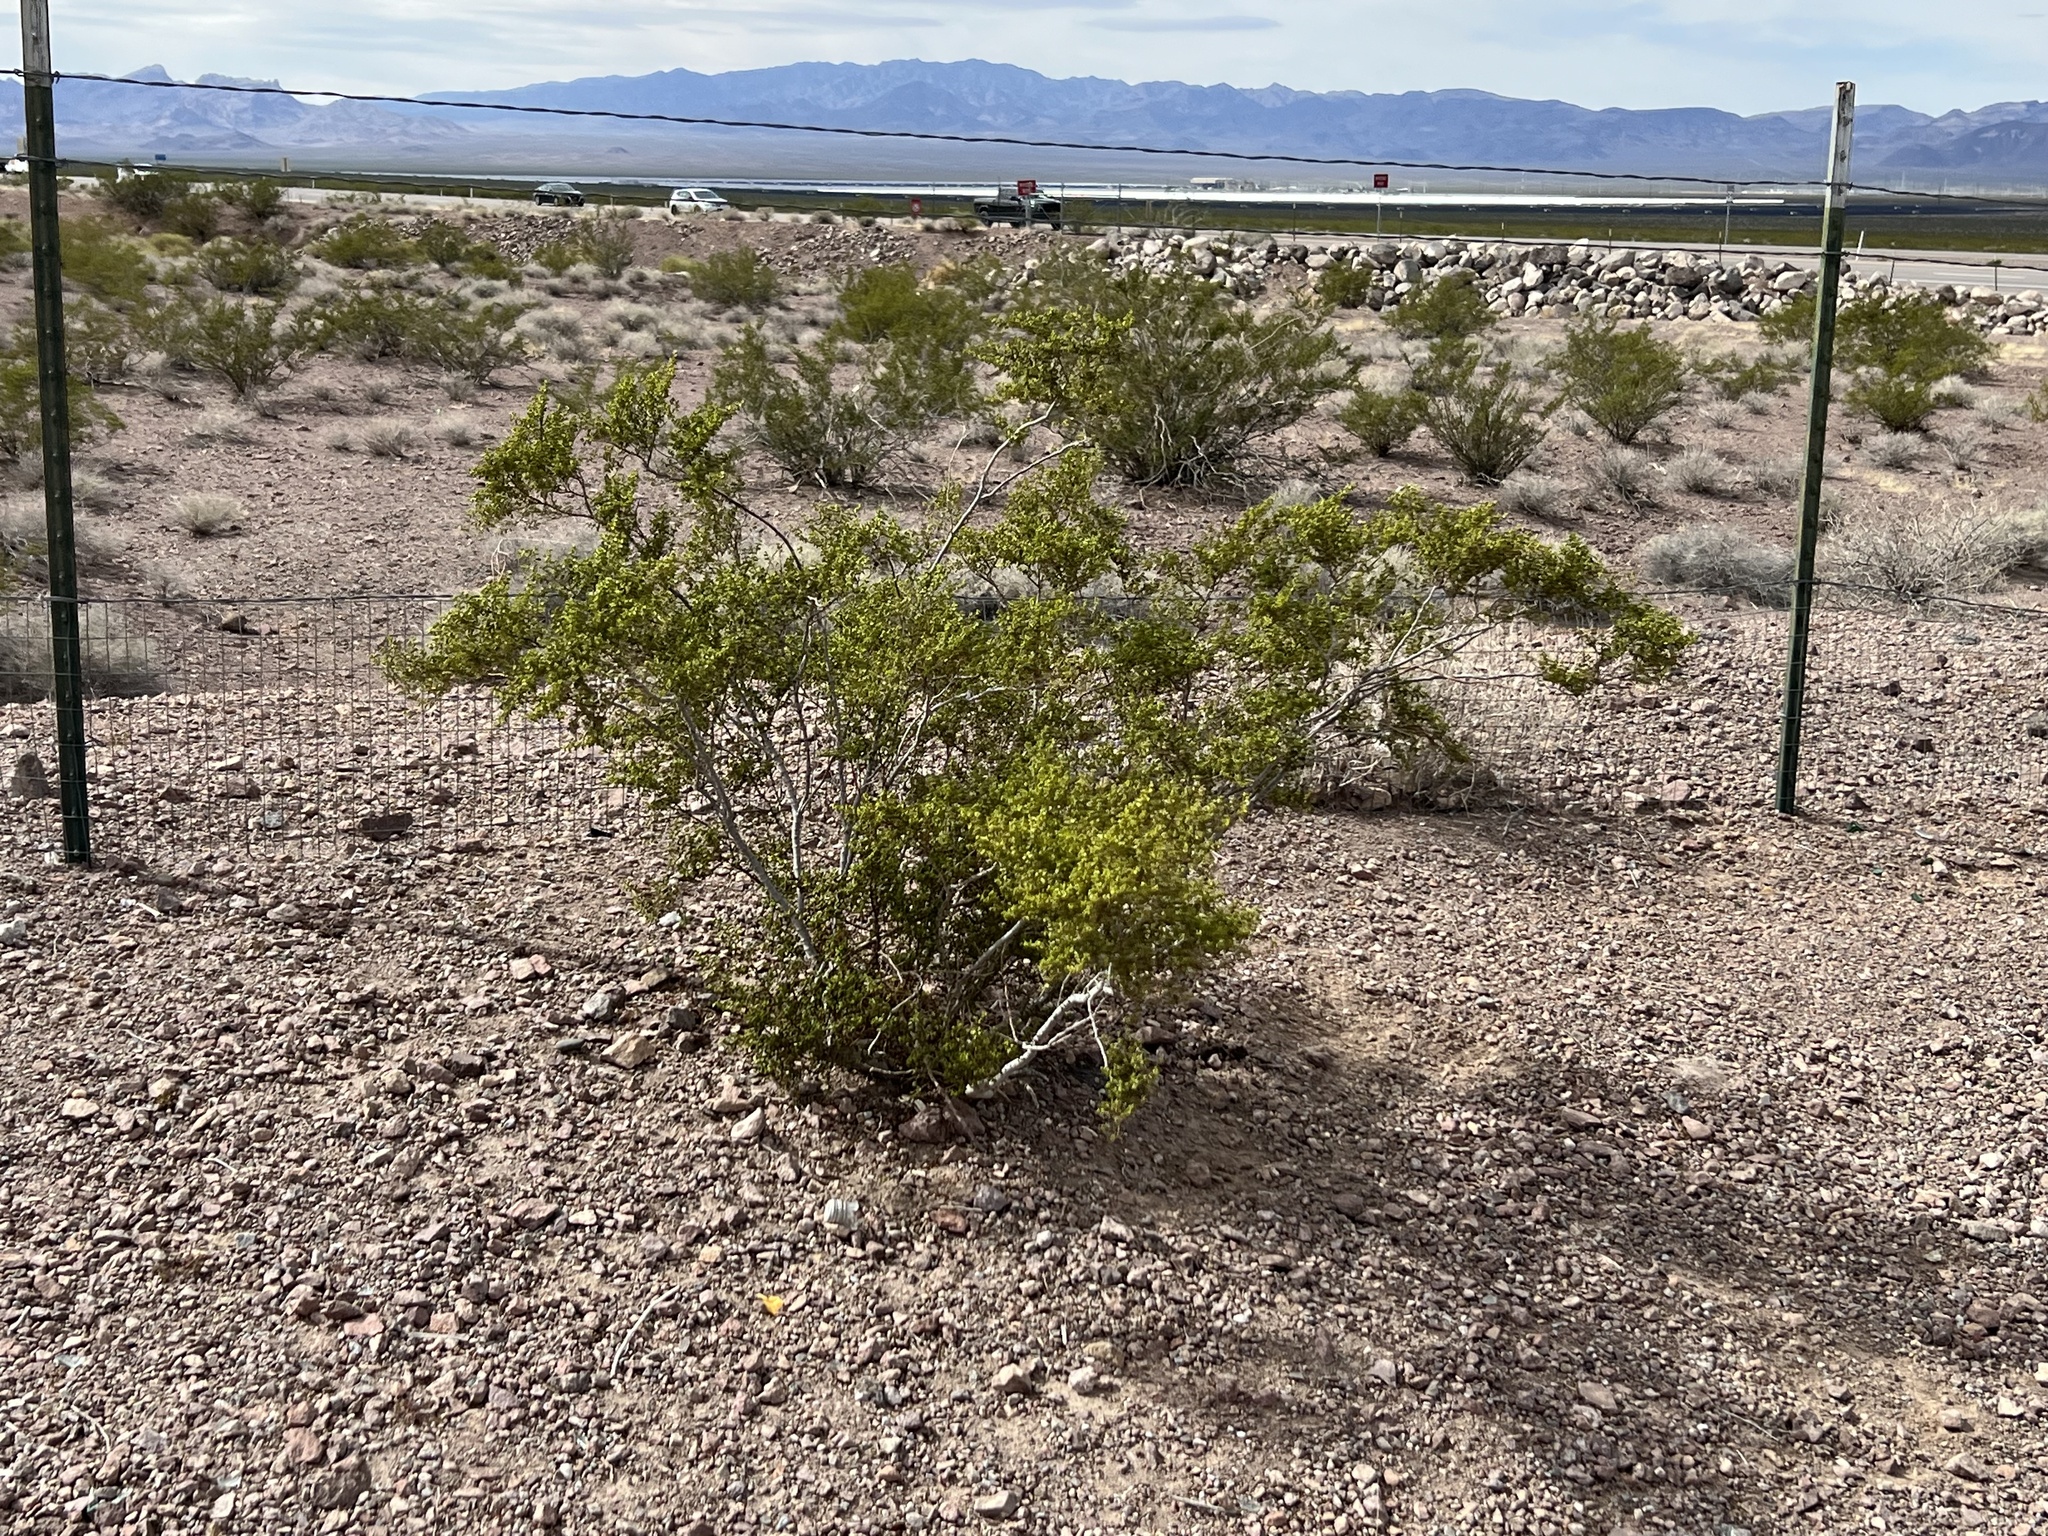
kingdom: Plantae
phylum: Tracheophyta
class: Magnoliopsida
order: Zygophyllales
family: Zygophyllaceae
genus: Larrea
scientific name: Larrea tridentata
